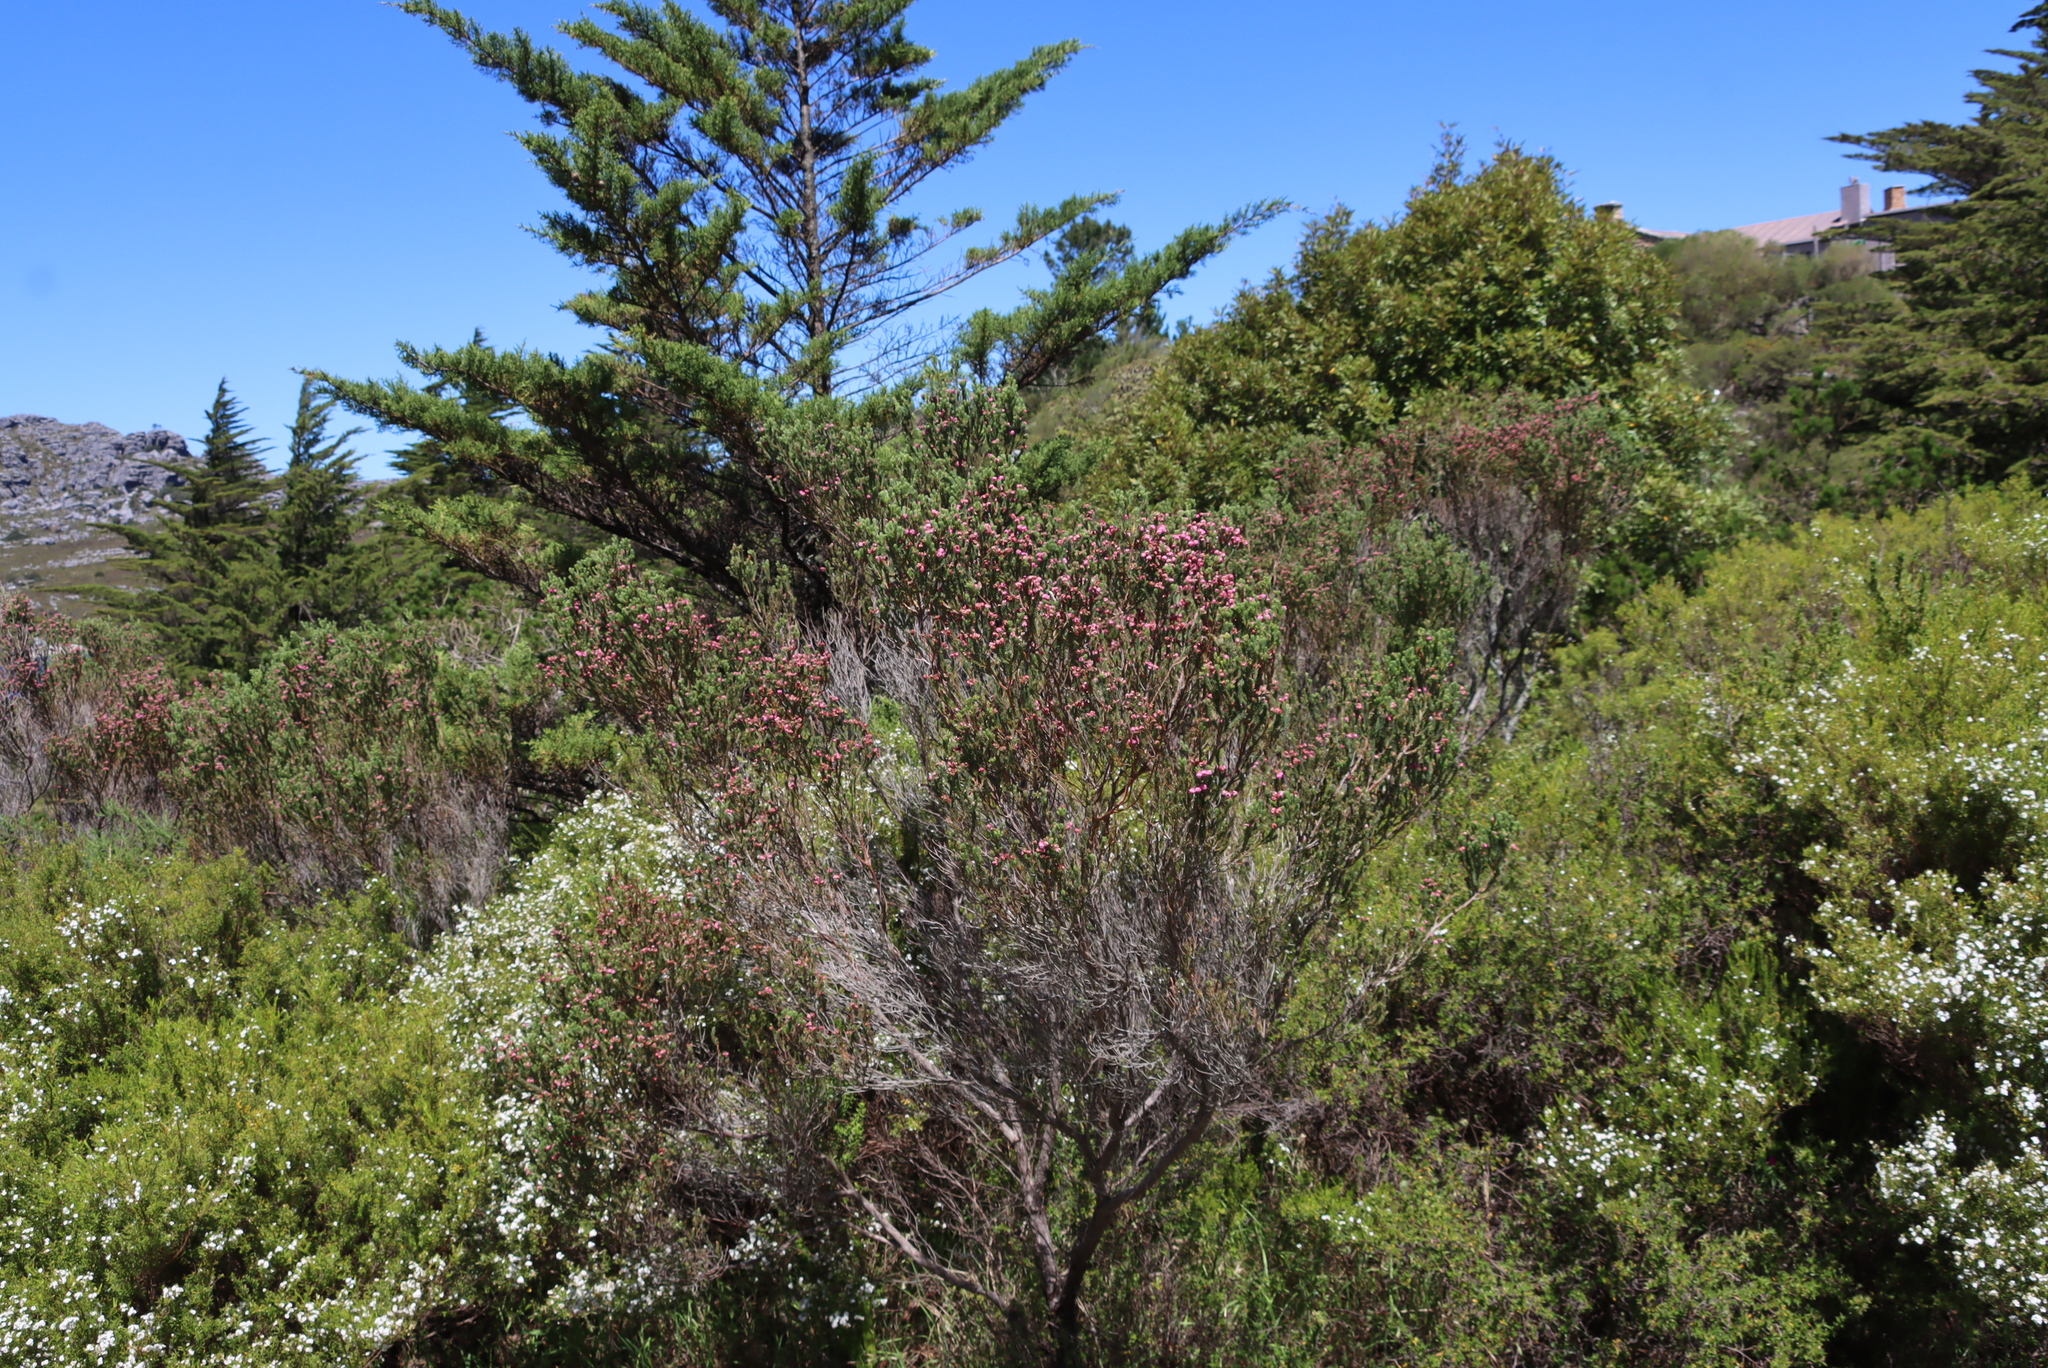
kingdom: Plantae
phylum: Tracheophyta
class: Magnoliopsida
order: Ericales
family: Ericaceae
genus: Erica
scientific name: Erica baccans
